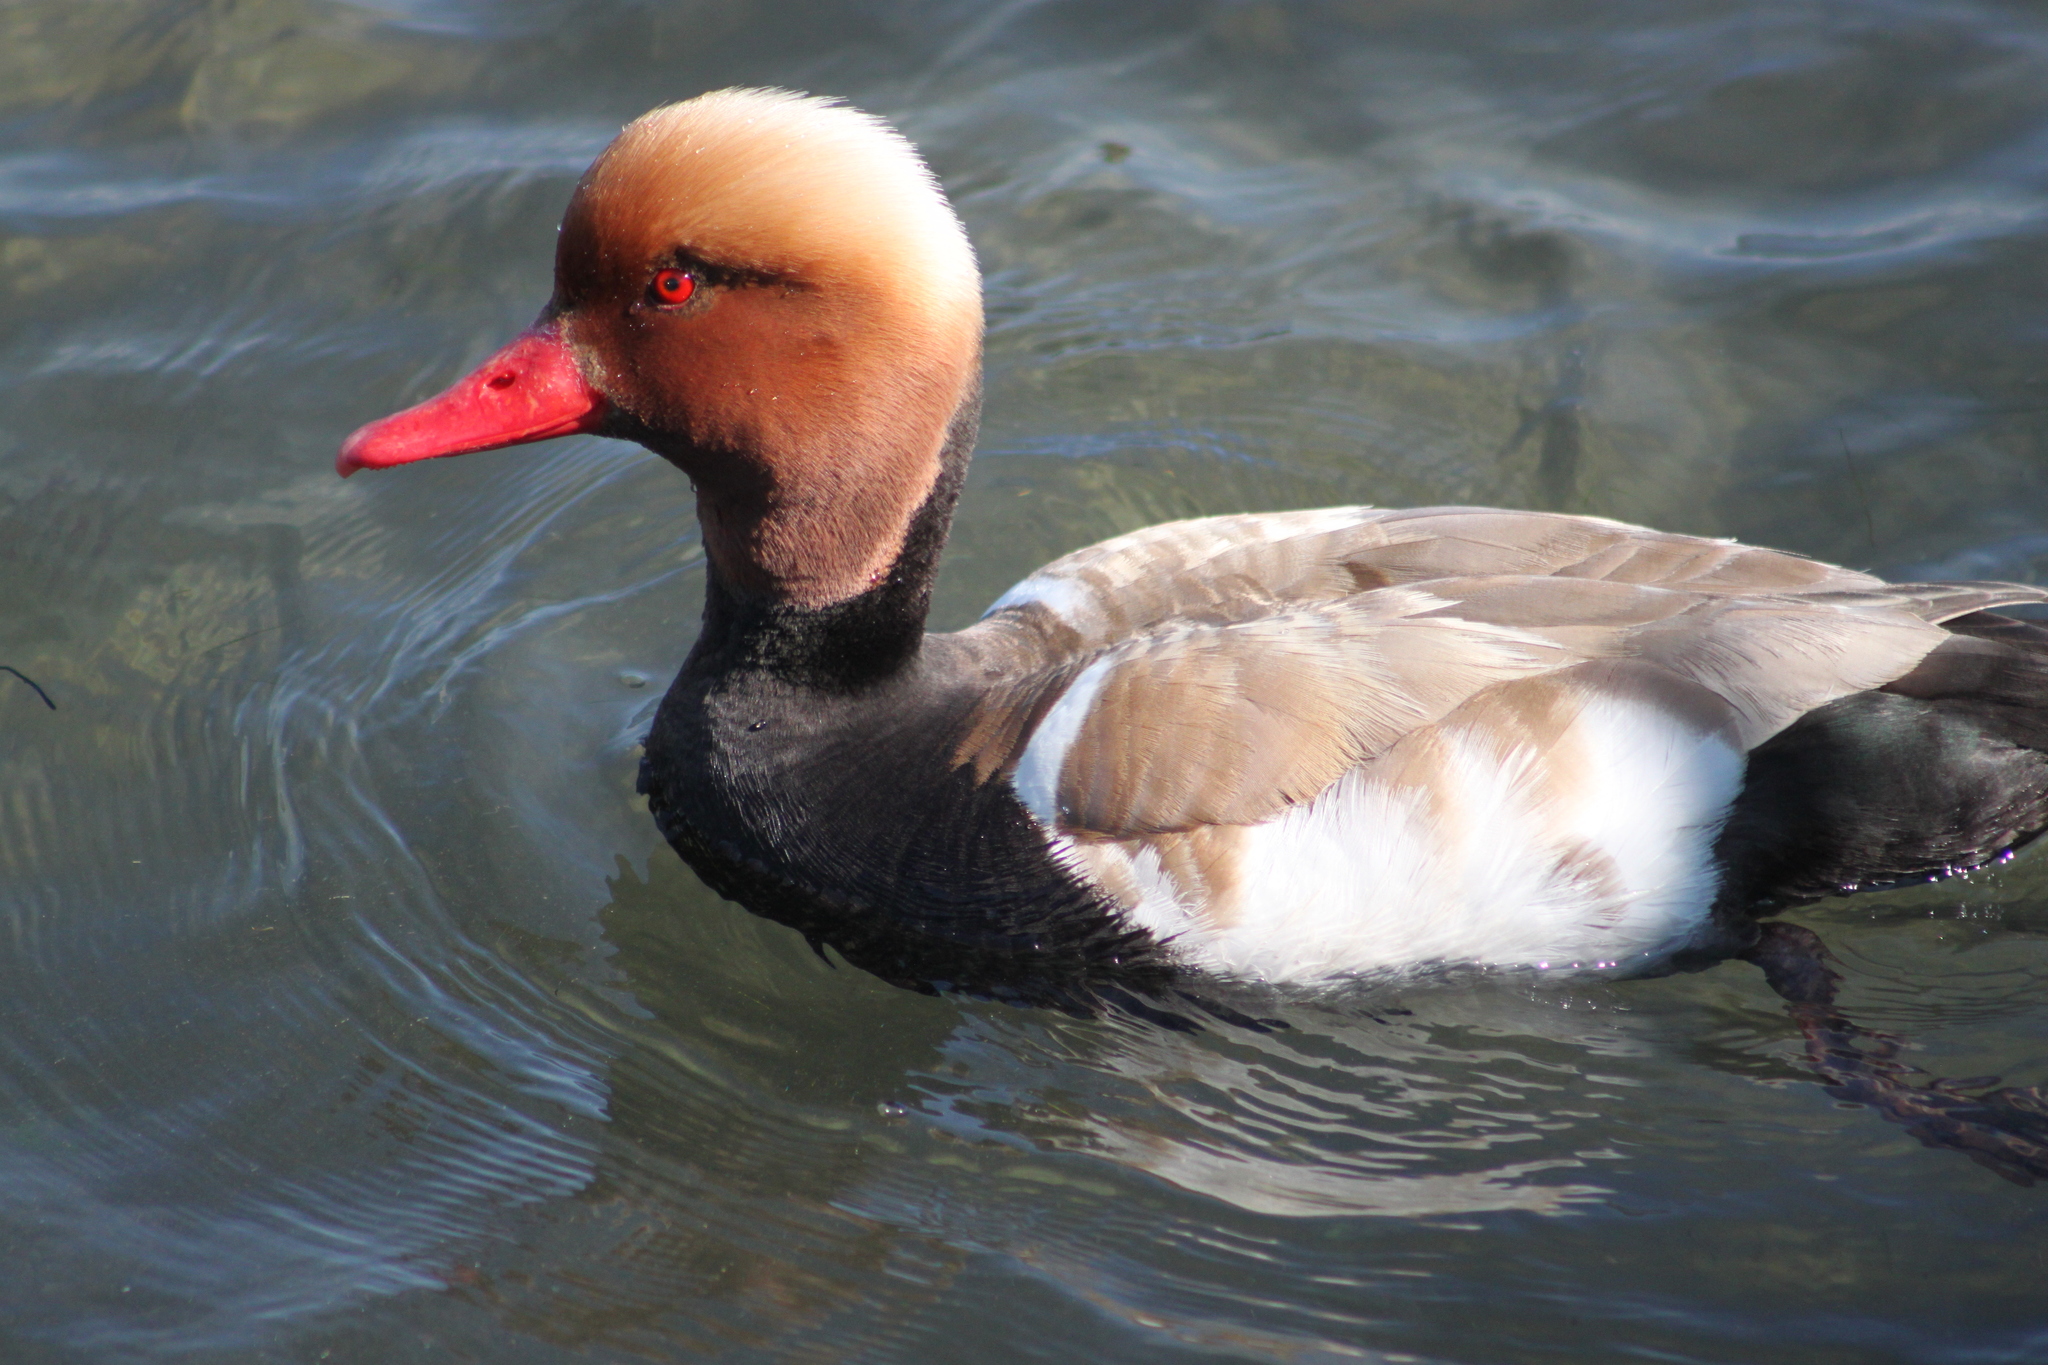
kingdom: Animalia
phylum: Chordata
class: Aves
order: Anseriformes
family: Anatidae
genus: Netta
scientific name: Netta rufina
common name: Red-crested pochard
